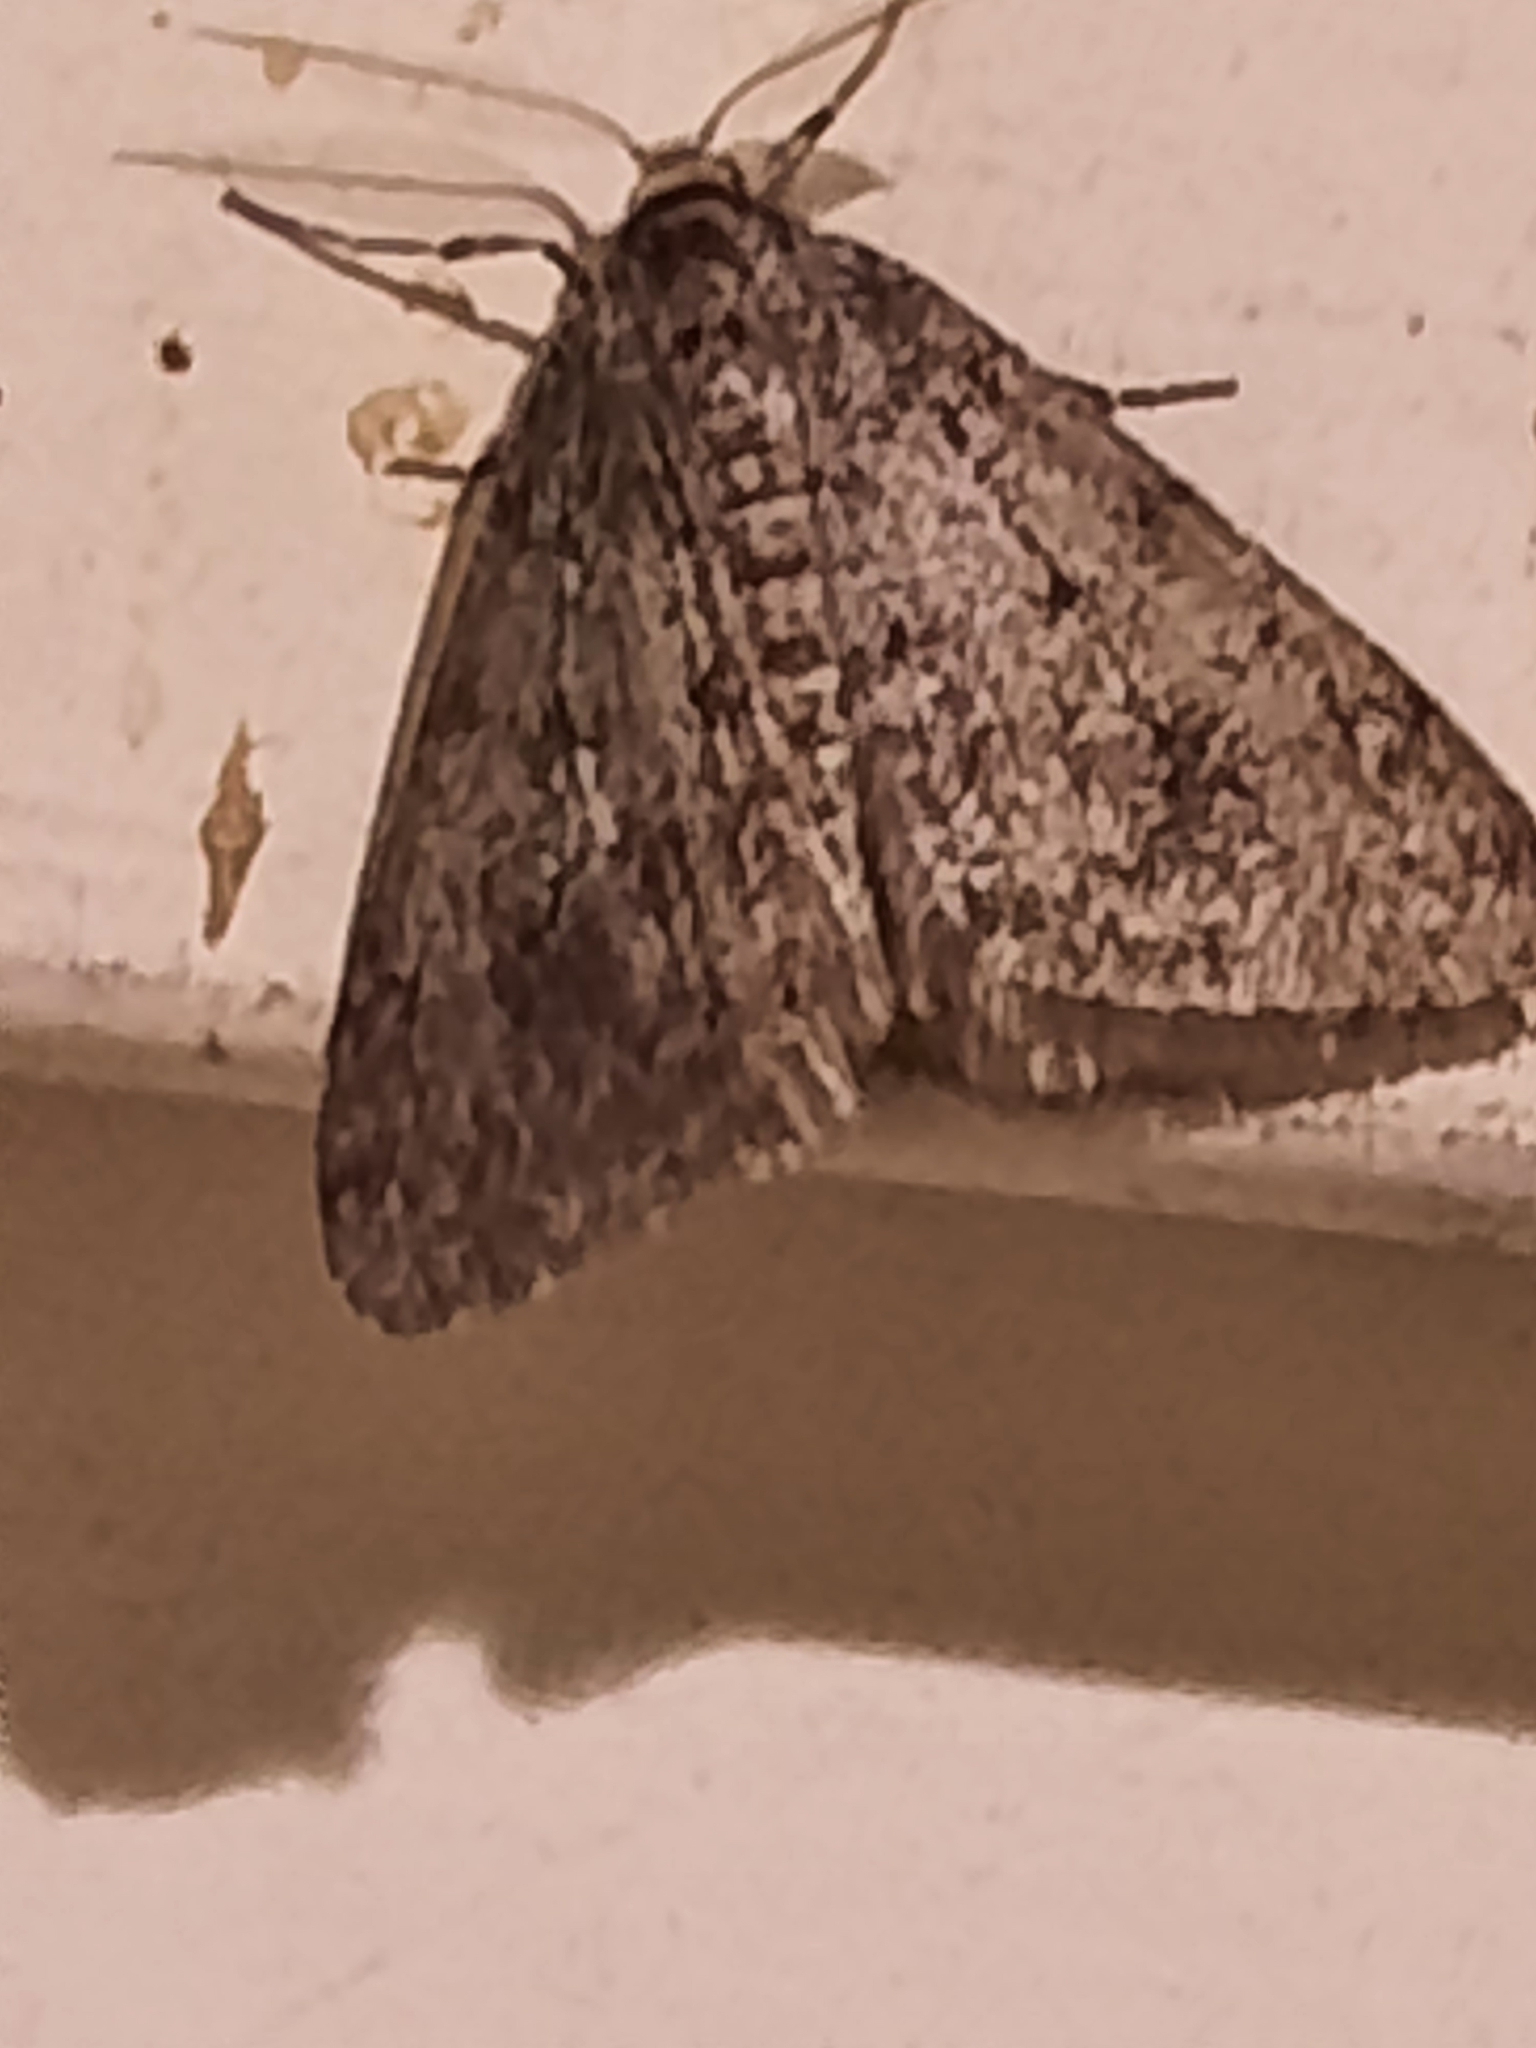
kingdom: Animalia
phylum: Arthropoda
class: Insecta
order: Lepidoptera
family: Geometridae
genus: Phigalia
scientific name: Phigalia strigataria
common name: Small phigalia
